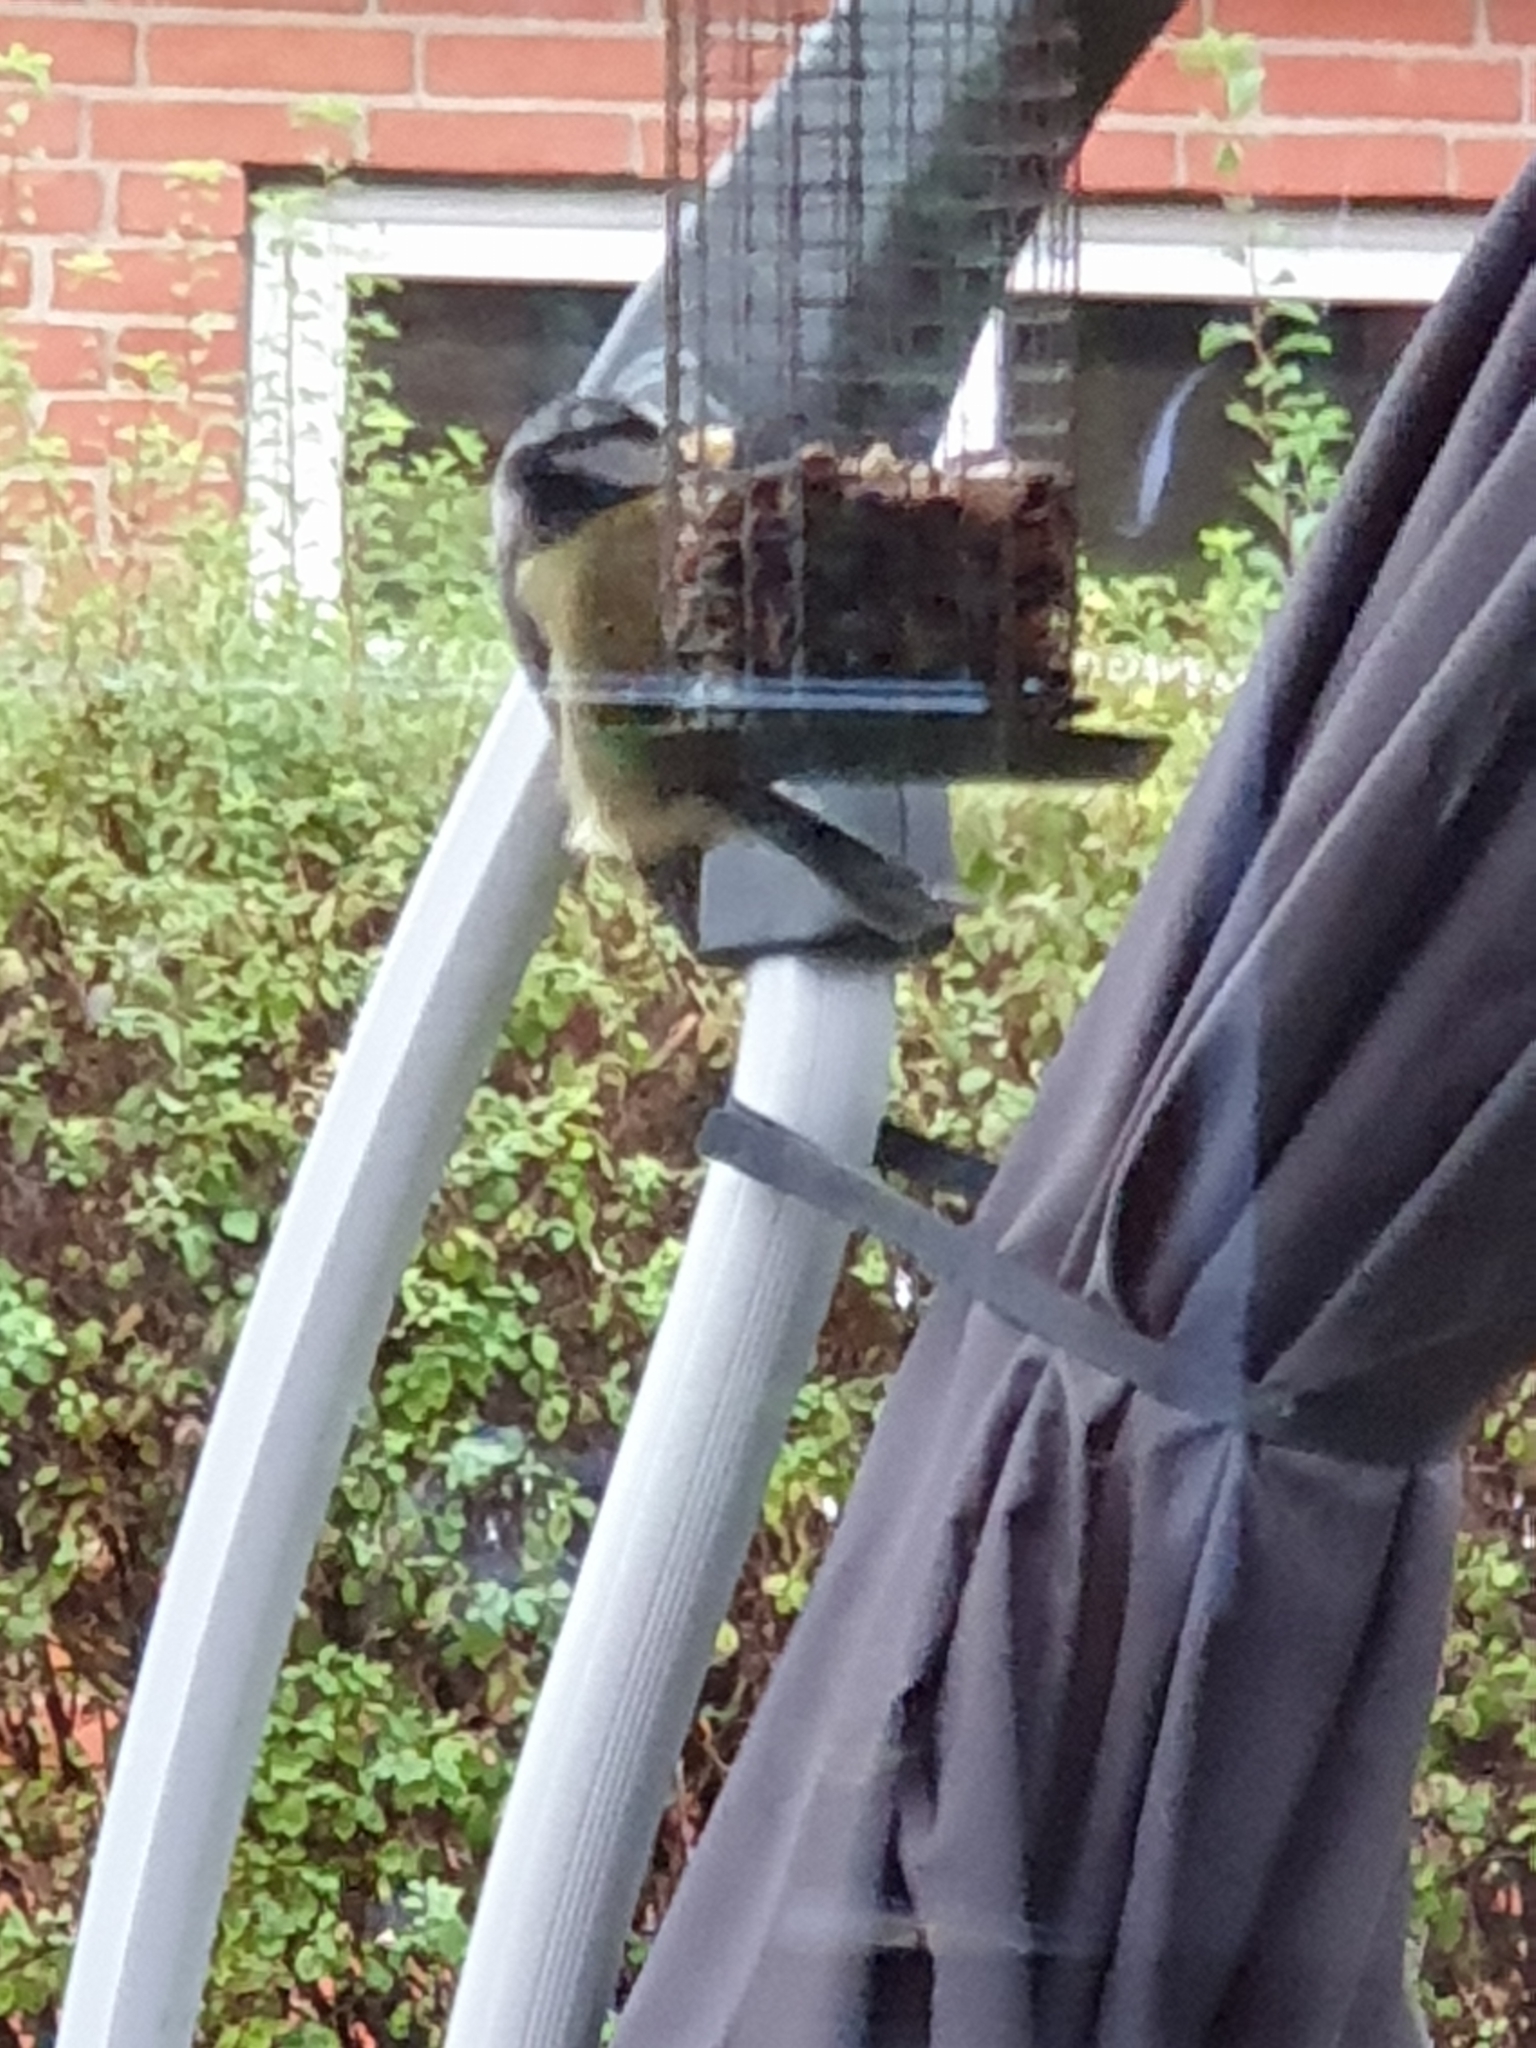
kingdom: Animalia
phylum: Chordata
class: Aves
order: Passeriformes
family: Paridae
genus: Cyanistes
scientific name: Cyanistes caeruleus
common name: Eurasian blue tit
